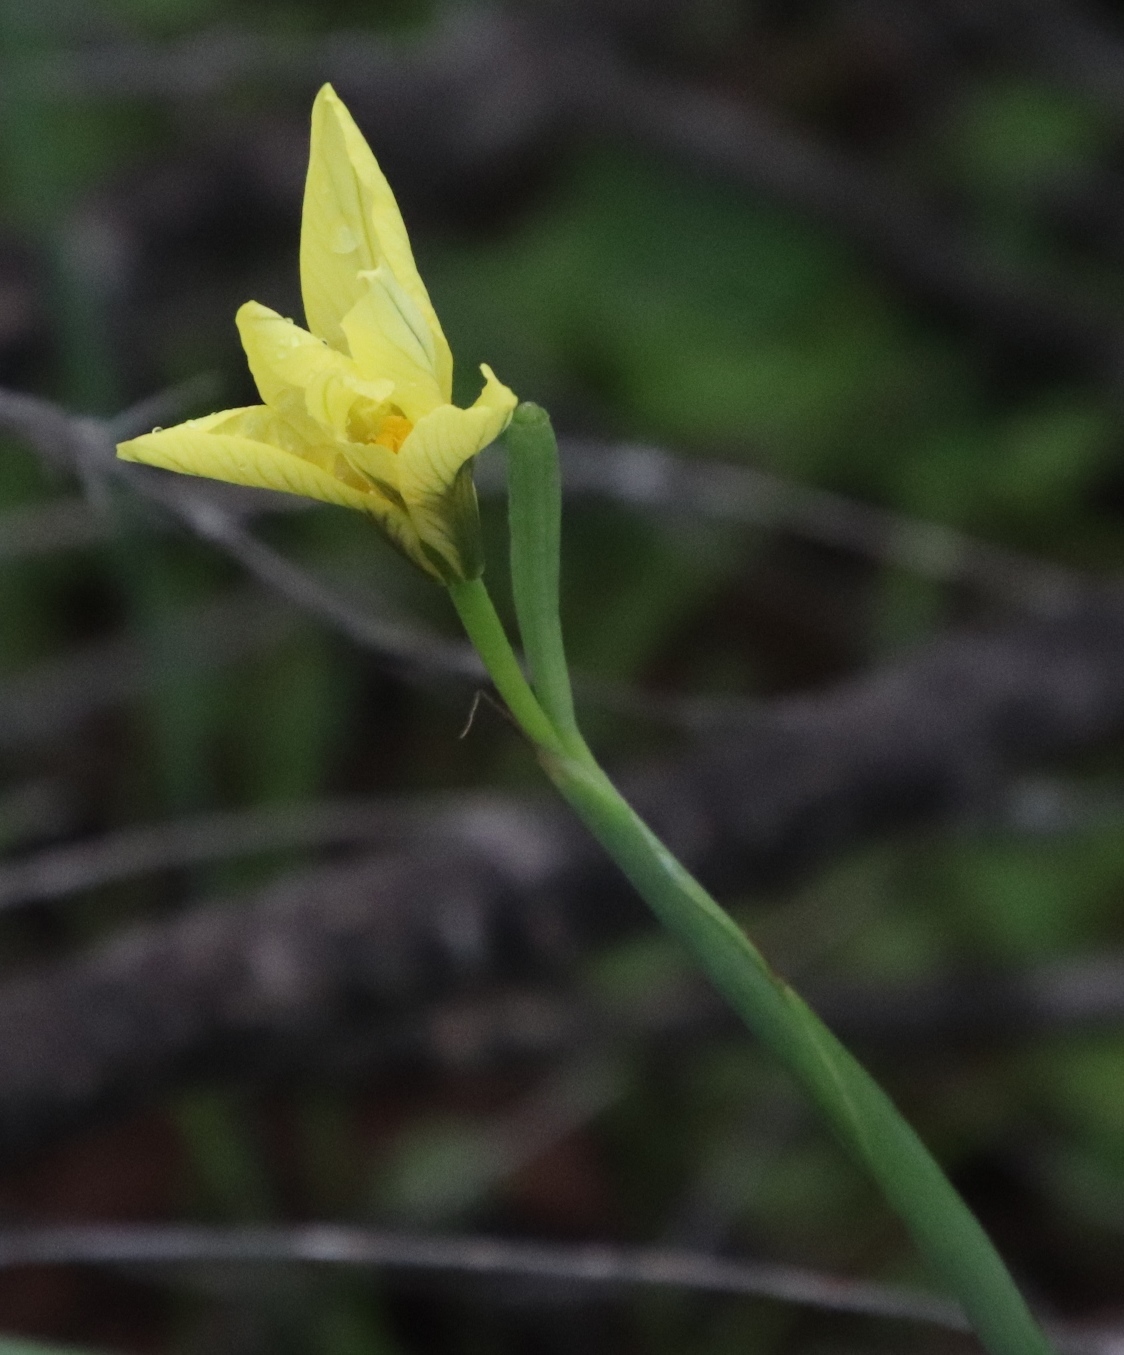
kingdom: Plantae
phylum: Tracheophyta
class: Liliopsida
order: Asparagales
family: Iridaceae
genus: Moraea
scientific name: Moraea collina
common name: Cape-tulip
